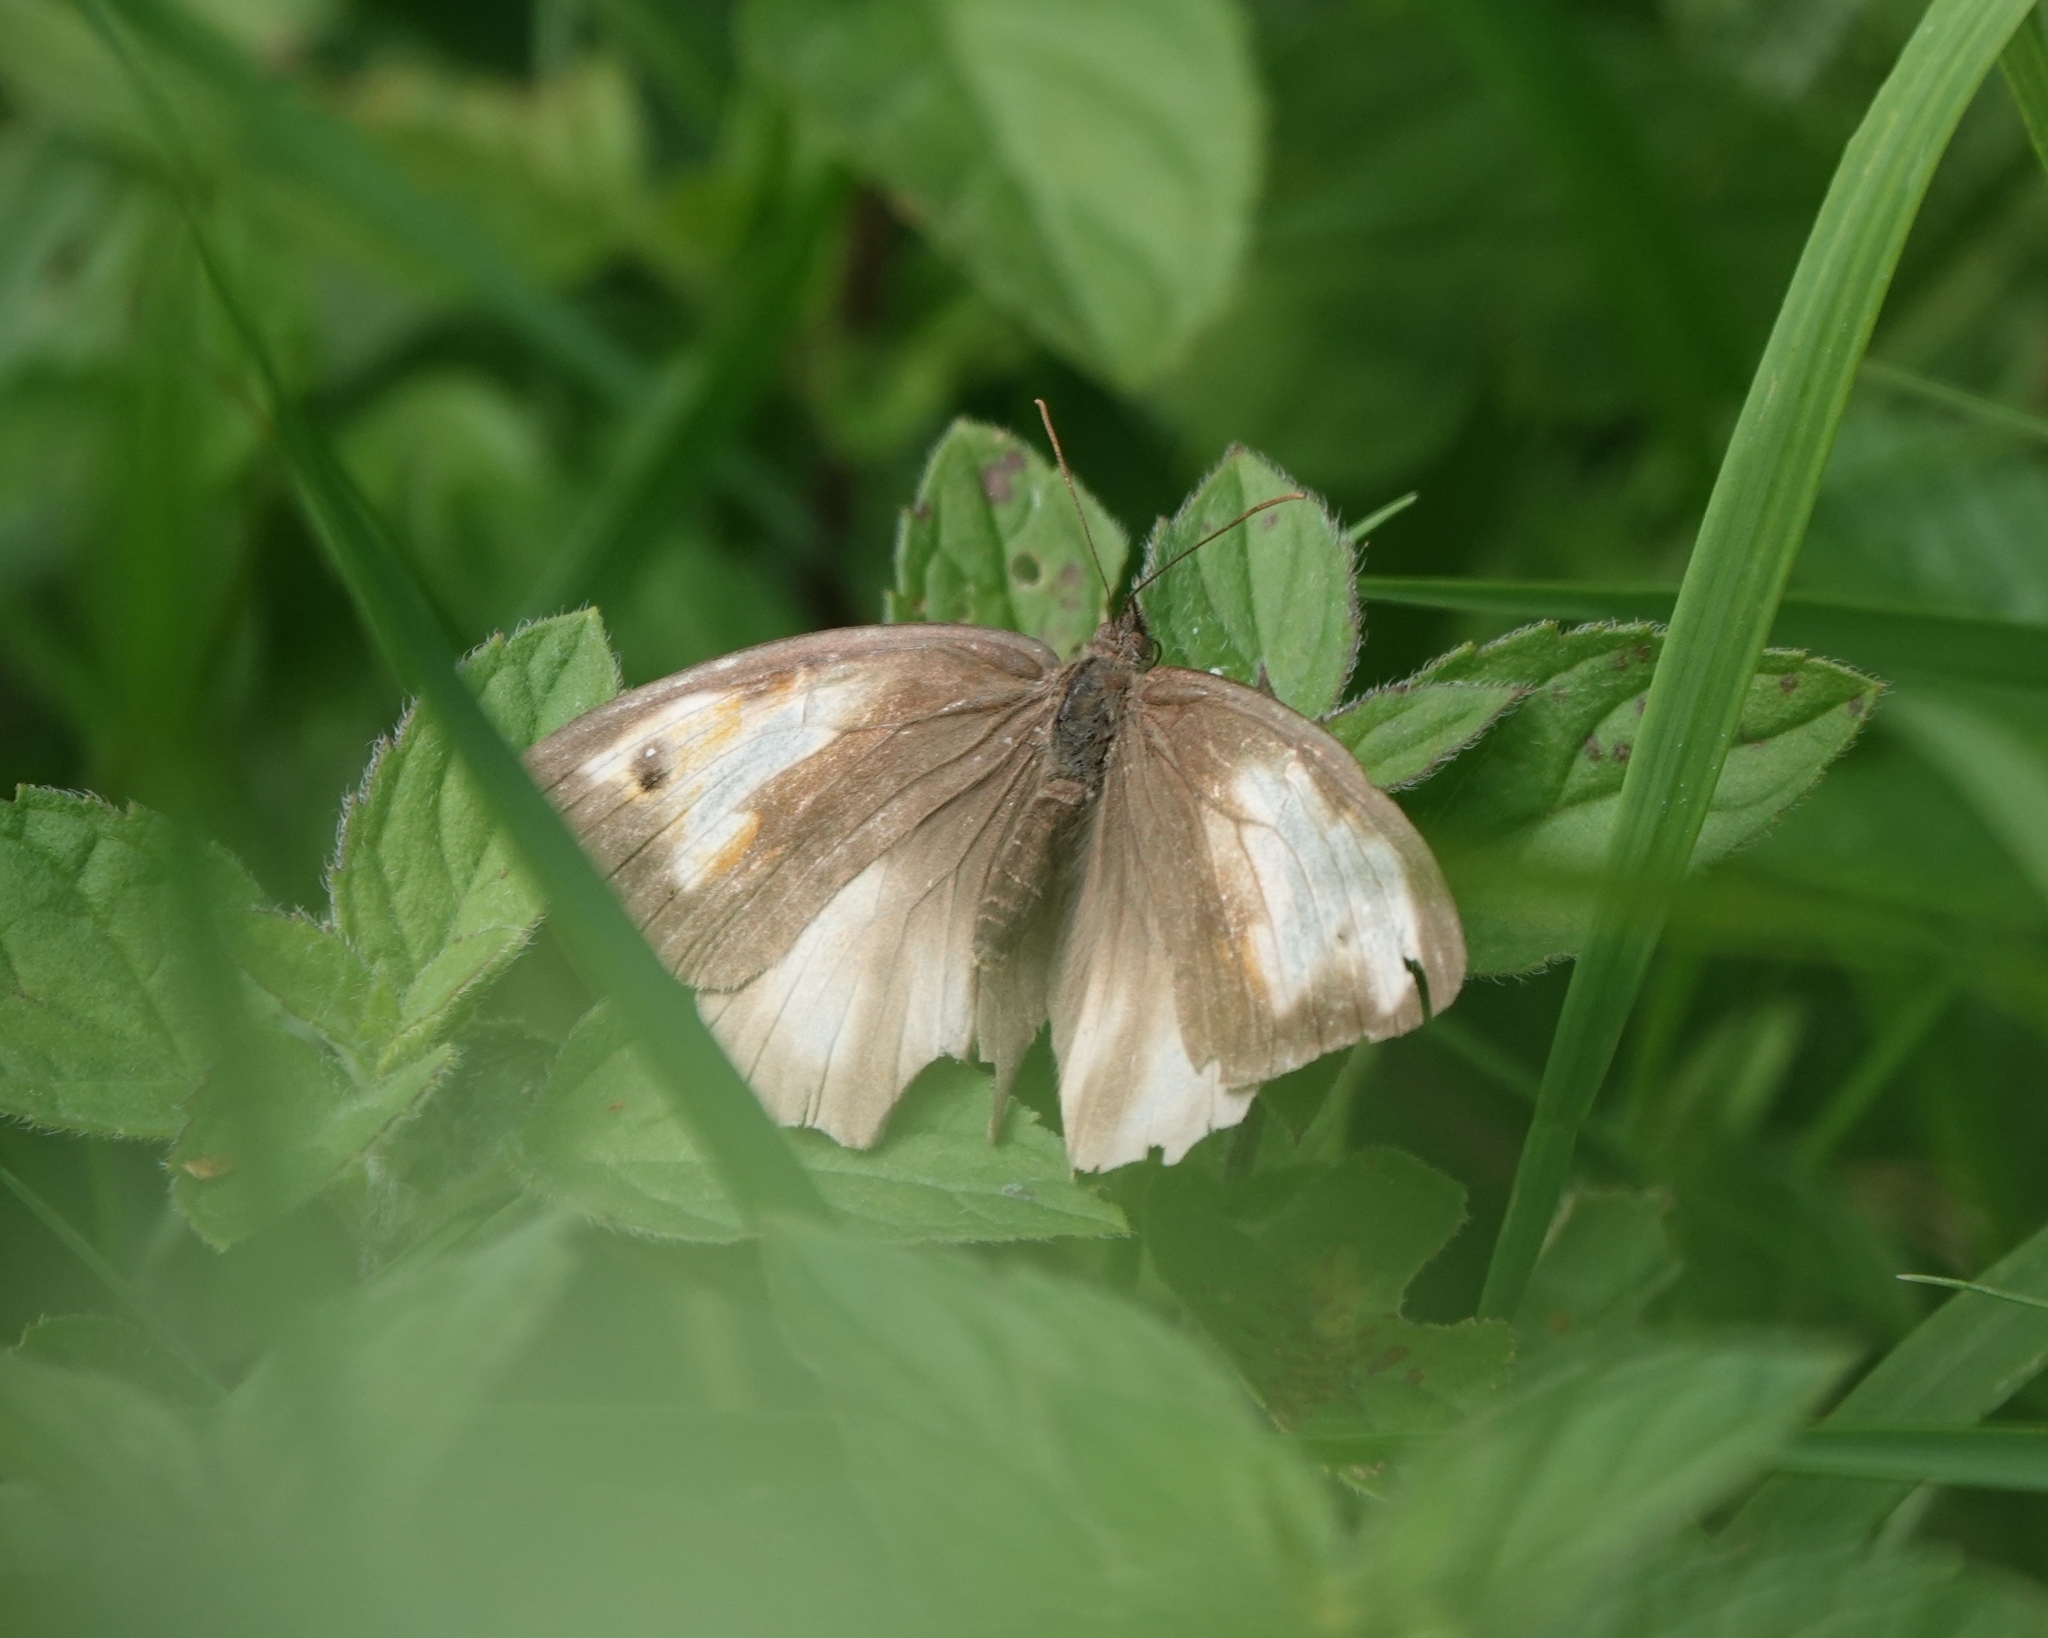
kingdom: Animalia
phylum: Arthropoda
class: Insecta
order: Lepidoptera
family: Nymphalidae
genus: Maniola
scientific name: Maniola jurtina
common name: Meadow brown
